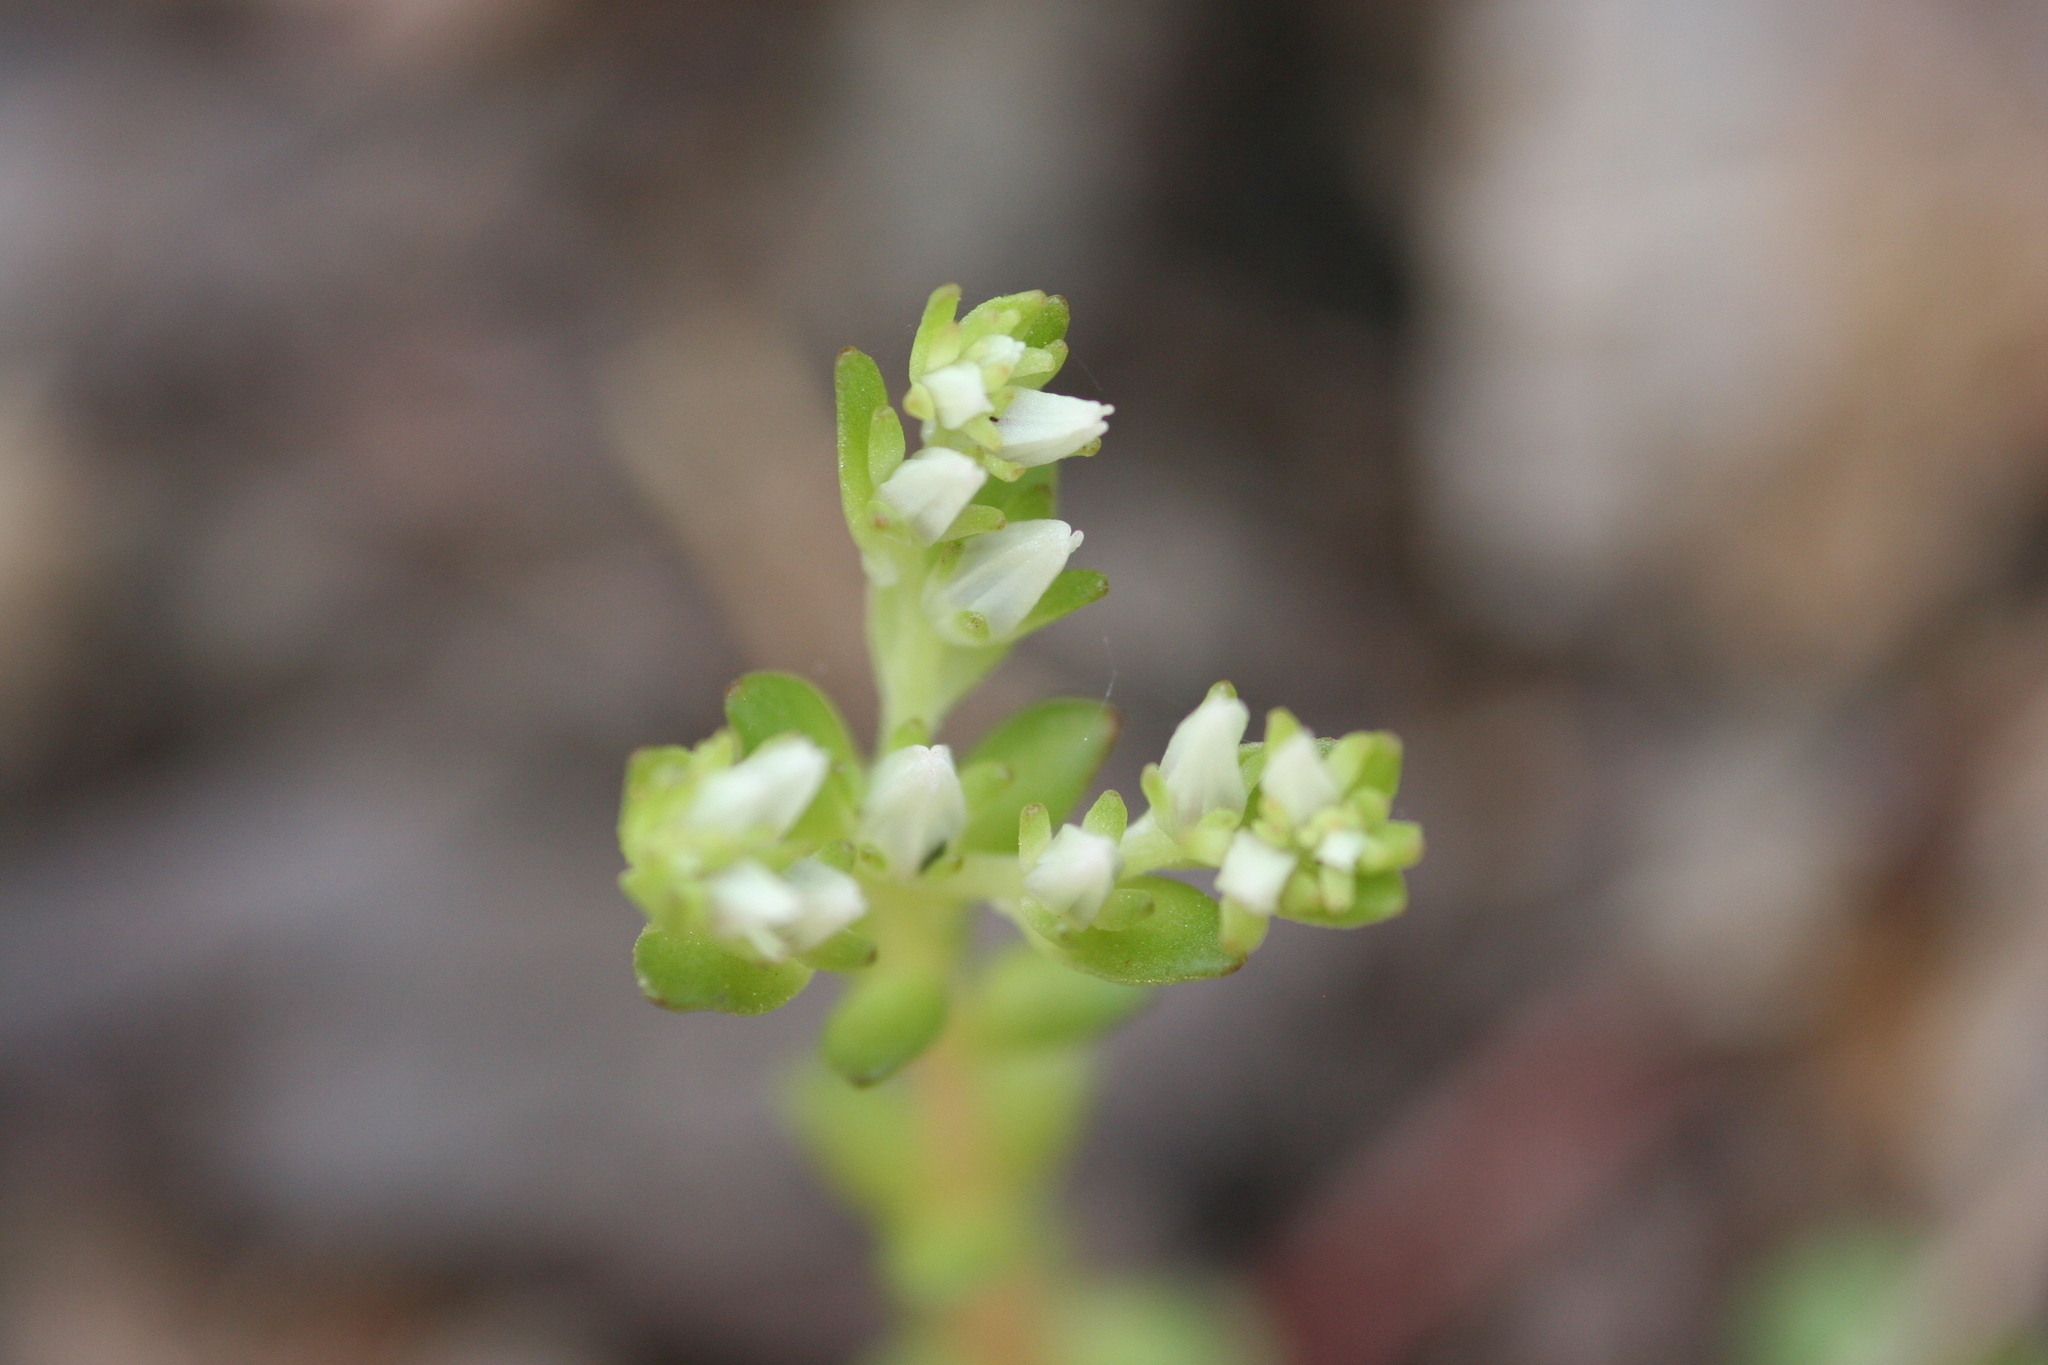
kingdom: Plantae
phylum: Tracheophyta
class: Magnoliopsida
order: Saxifragales
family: Crassulaceae
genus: Sedum
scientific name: Sedum ternatum
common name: Wild stonecrop
